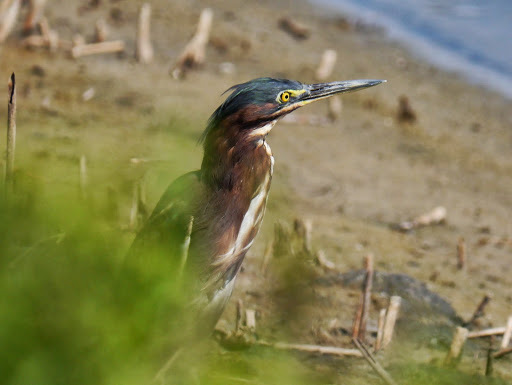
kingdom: Animalia
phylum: Chordata
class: Aves
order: Pelecaniformes
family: Ardeidae
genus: Butorides
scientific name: Butorides virescens
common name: Green heron
